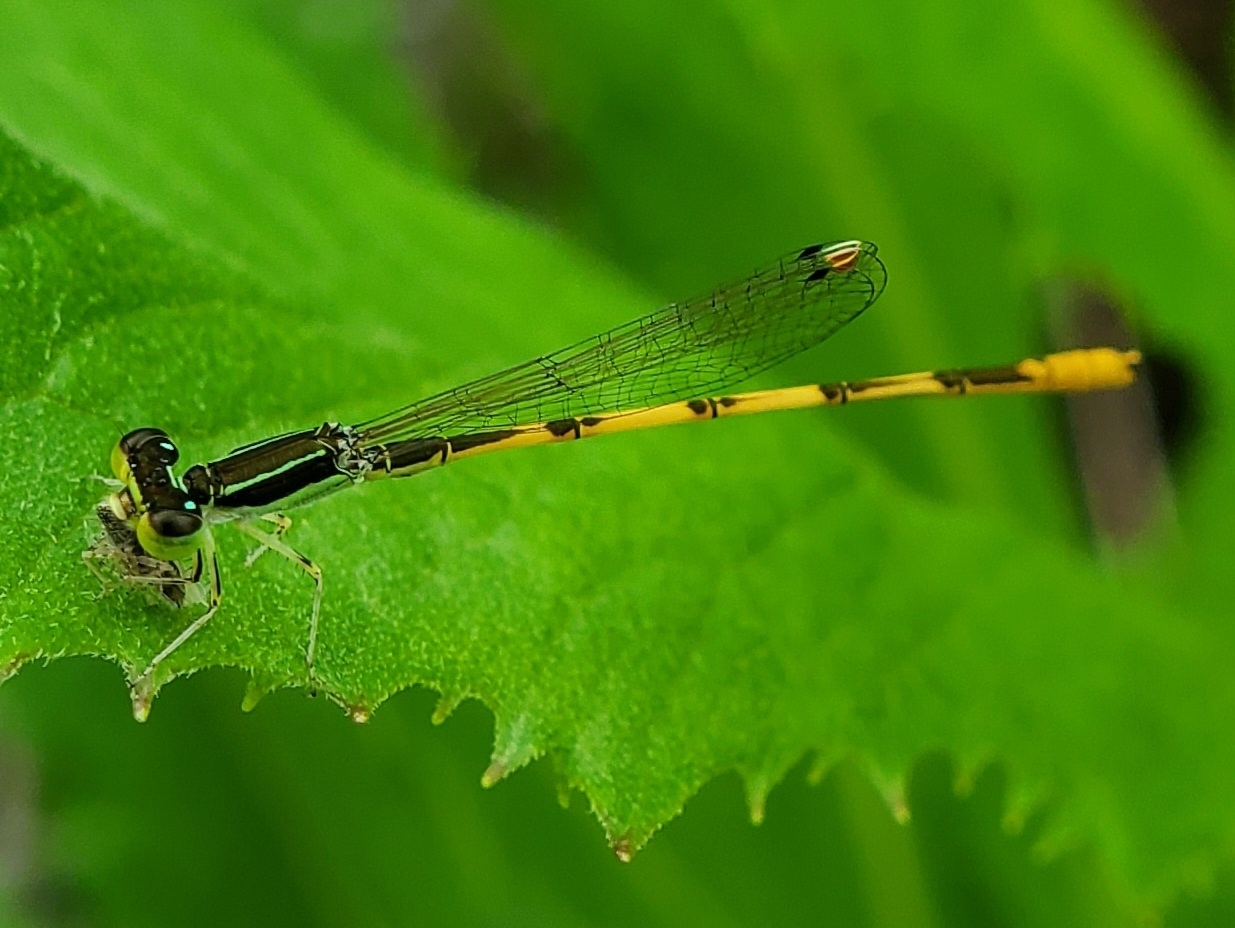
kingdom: Animalia
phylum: Arthropoda
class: Insecta
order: Odonata
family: Coenagrionidae
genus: Ischnura
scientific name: Ischnura hastata
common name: Citrine forktail
